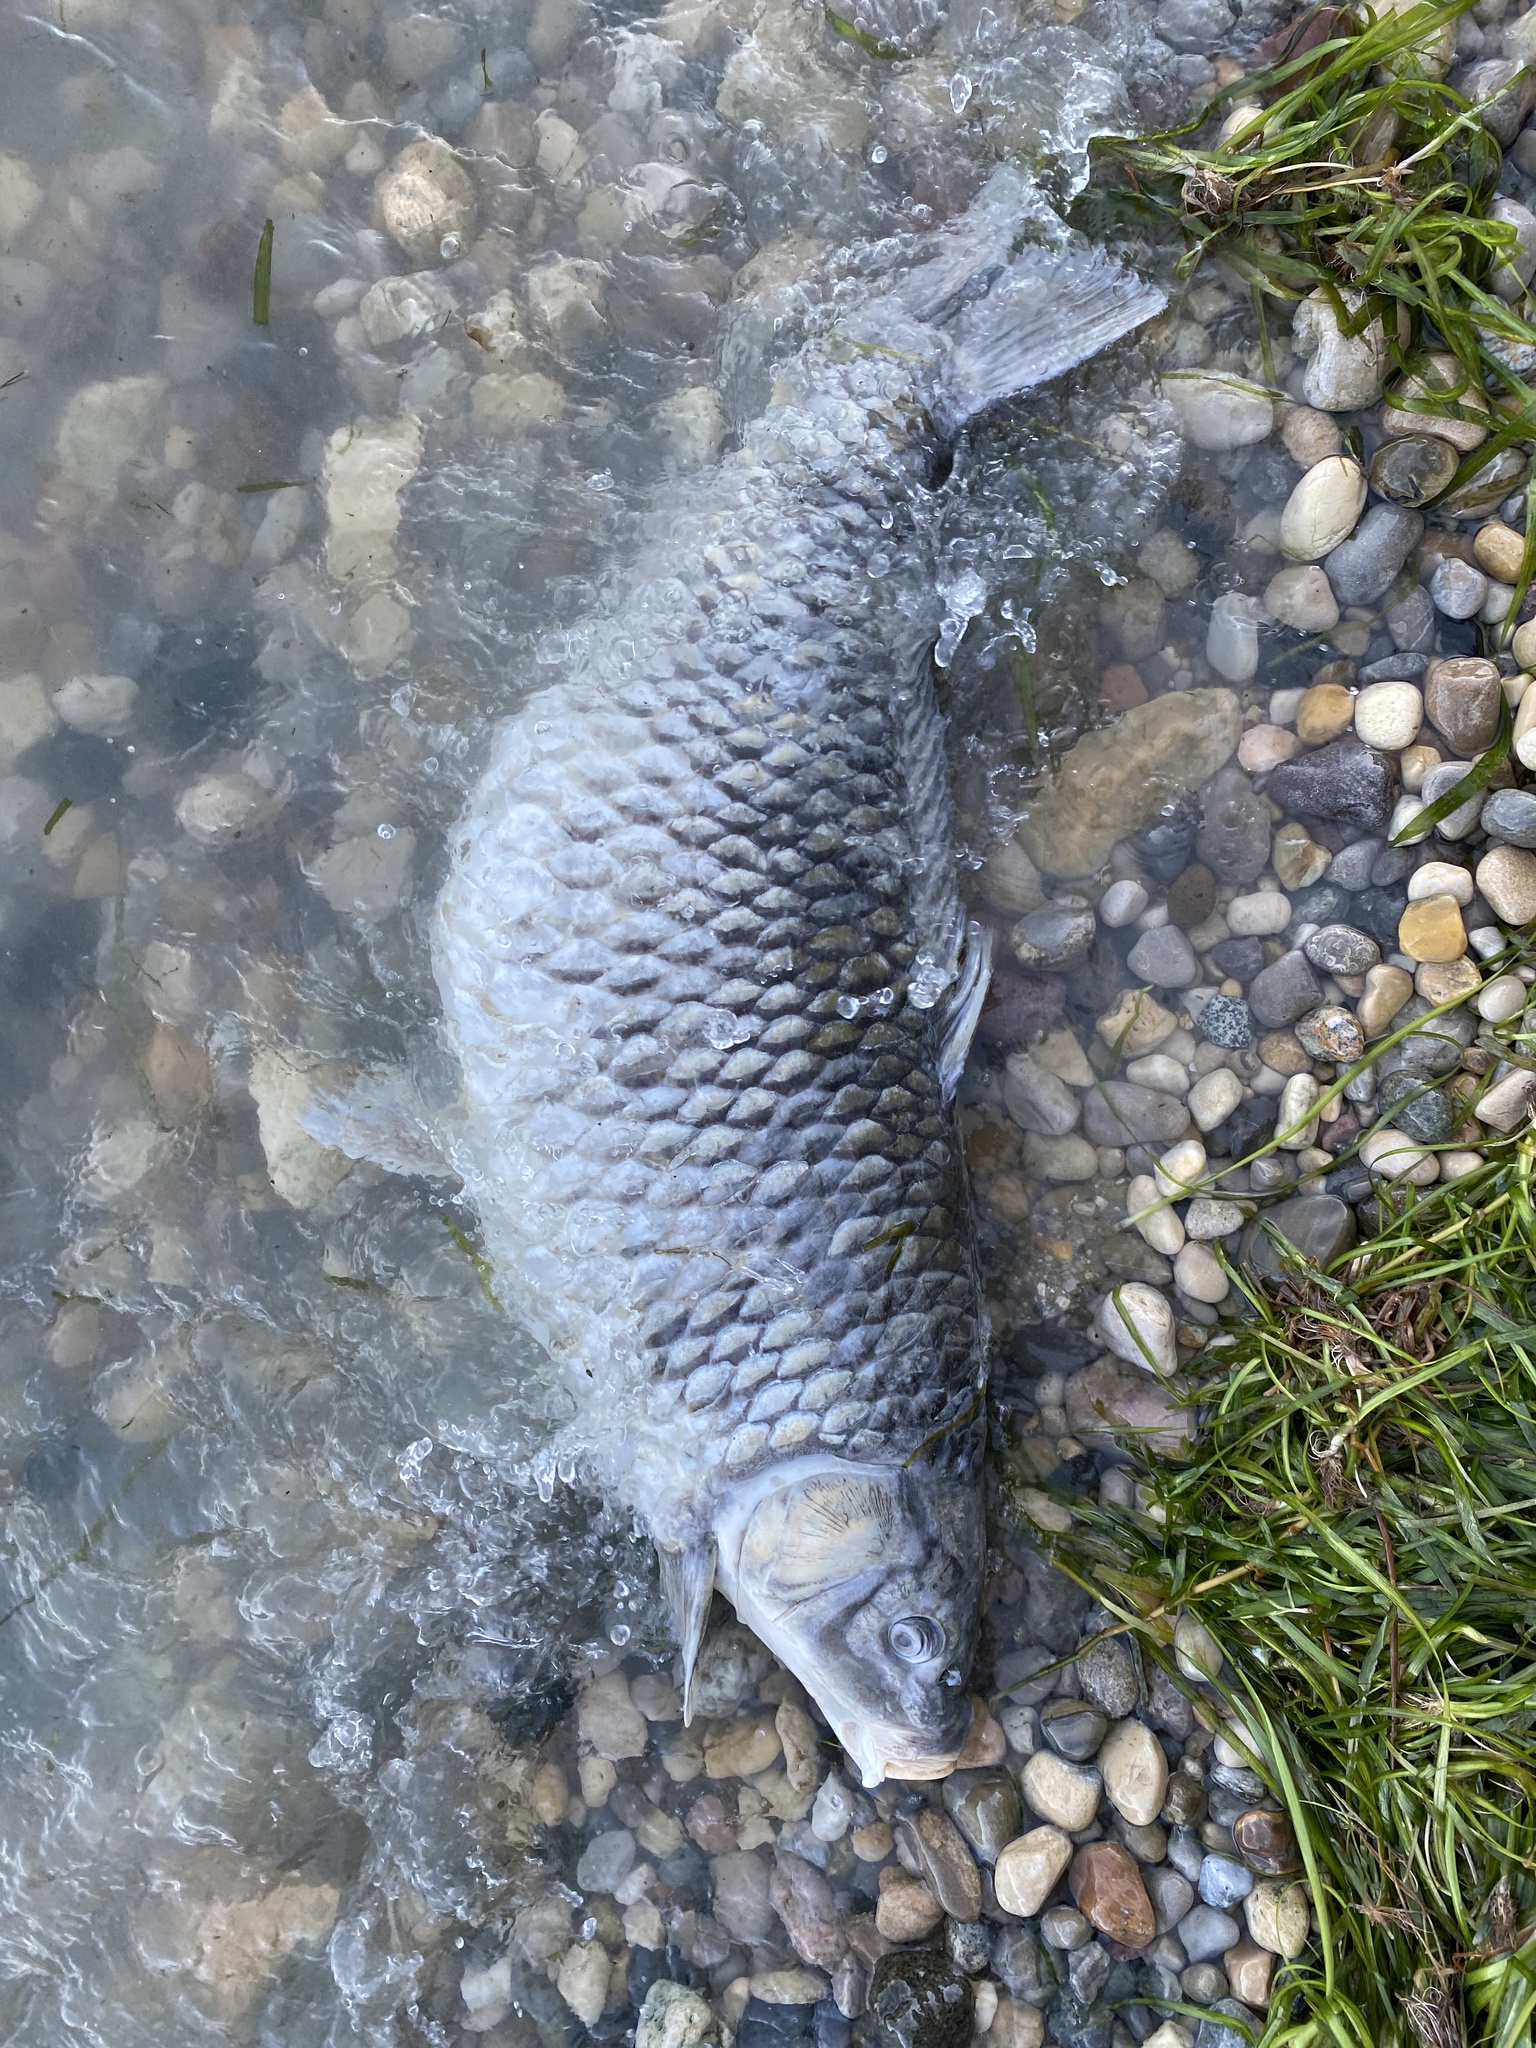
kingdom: Animalia
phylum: Chordata
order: Cypriniformes
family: Cyprinidae
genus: Cyprinus
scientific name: Cyprinus carpio
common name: Common carp
